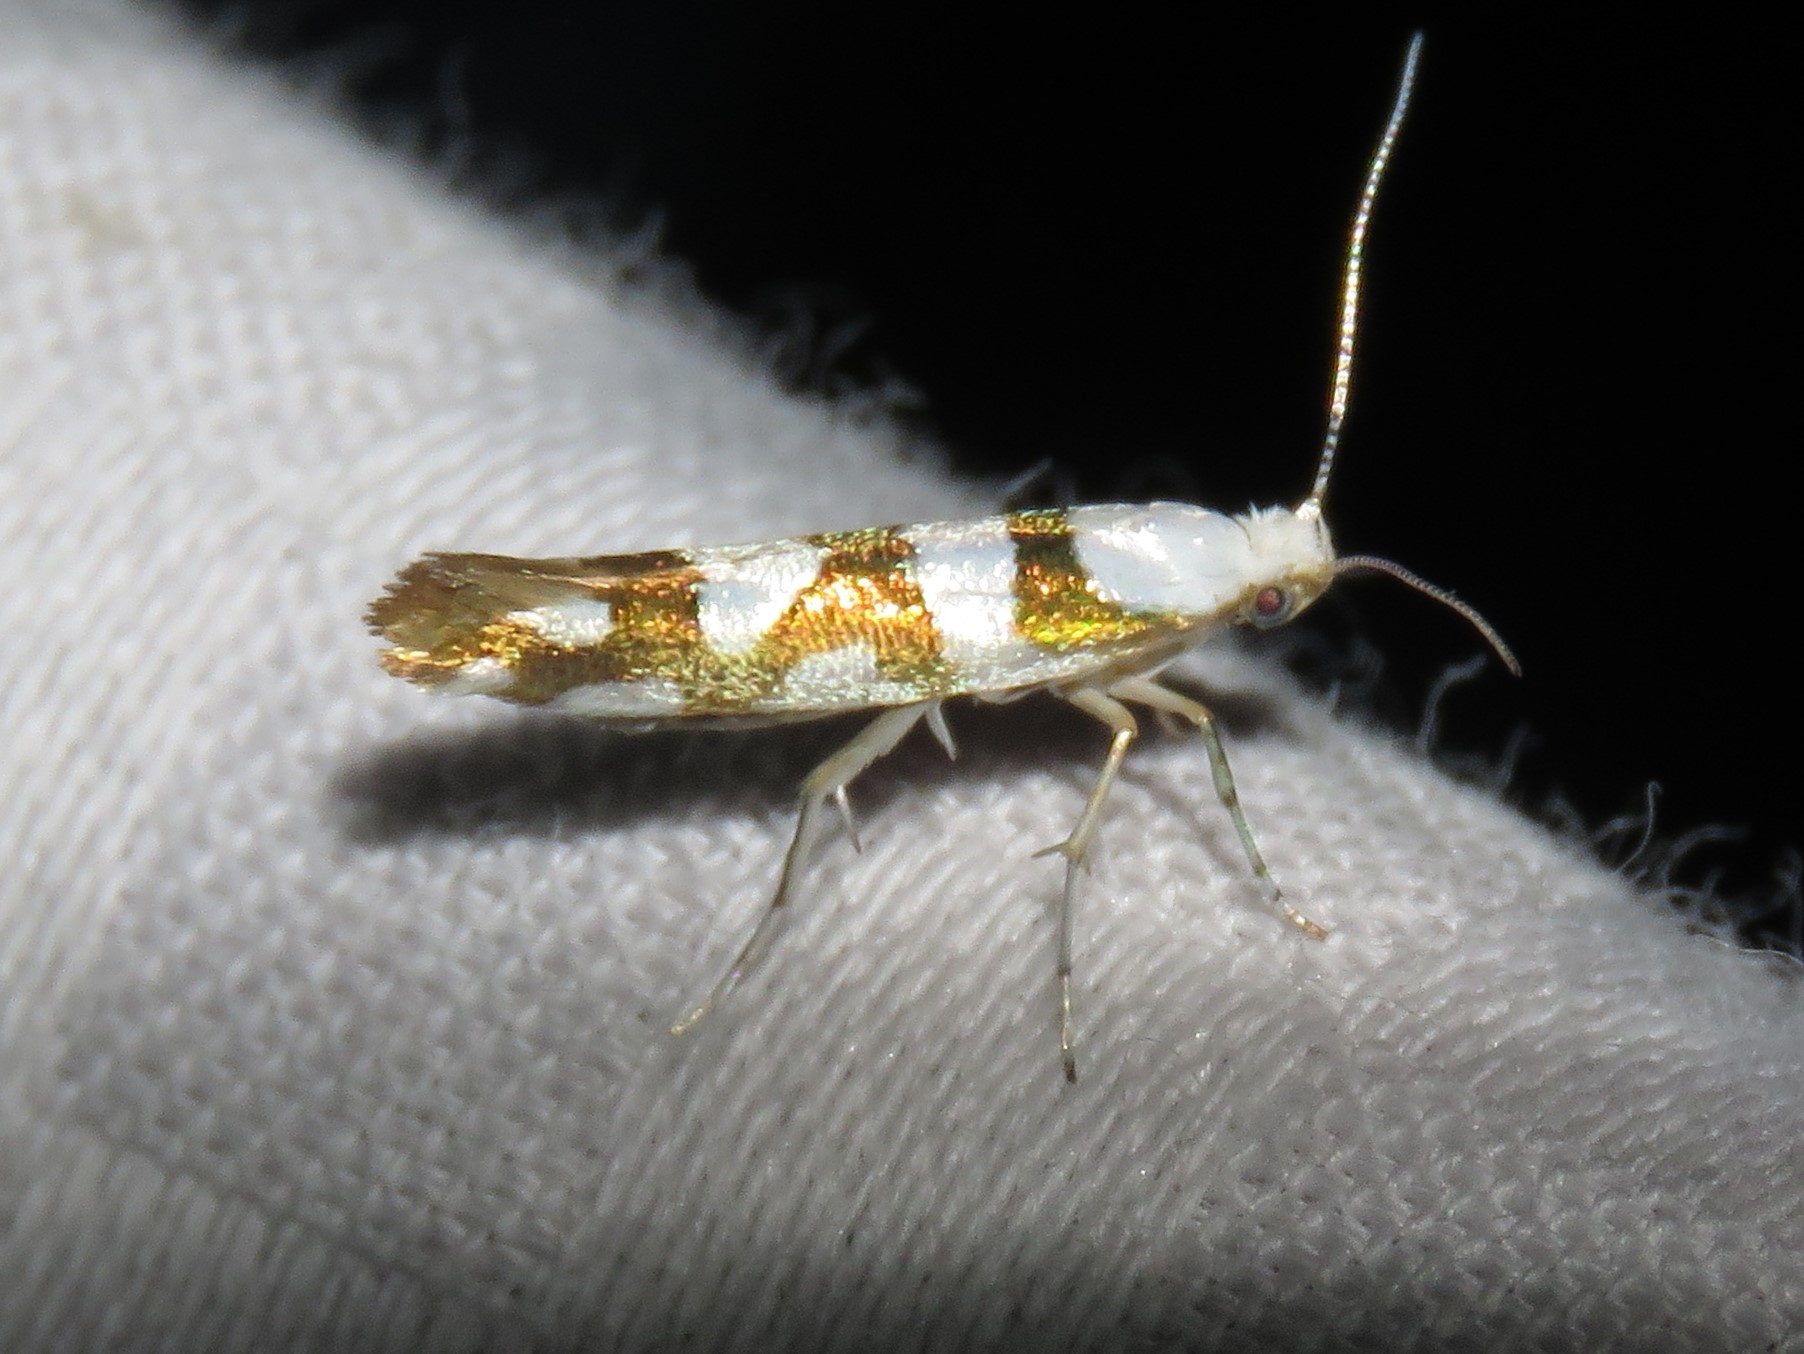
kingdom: Animalia
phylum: Arthropoda
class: Insecta
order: Lepidoptera
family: Argyresthiidae
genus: Argyresthia
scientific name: Argyresthia calliphanes
